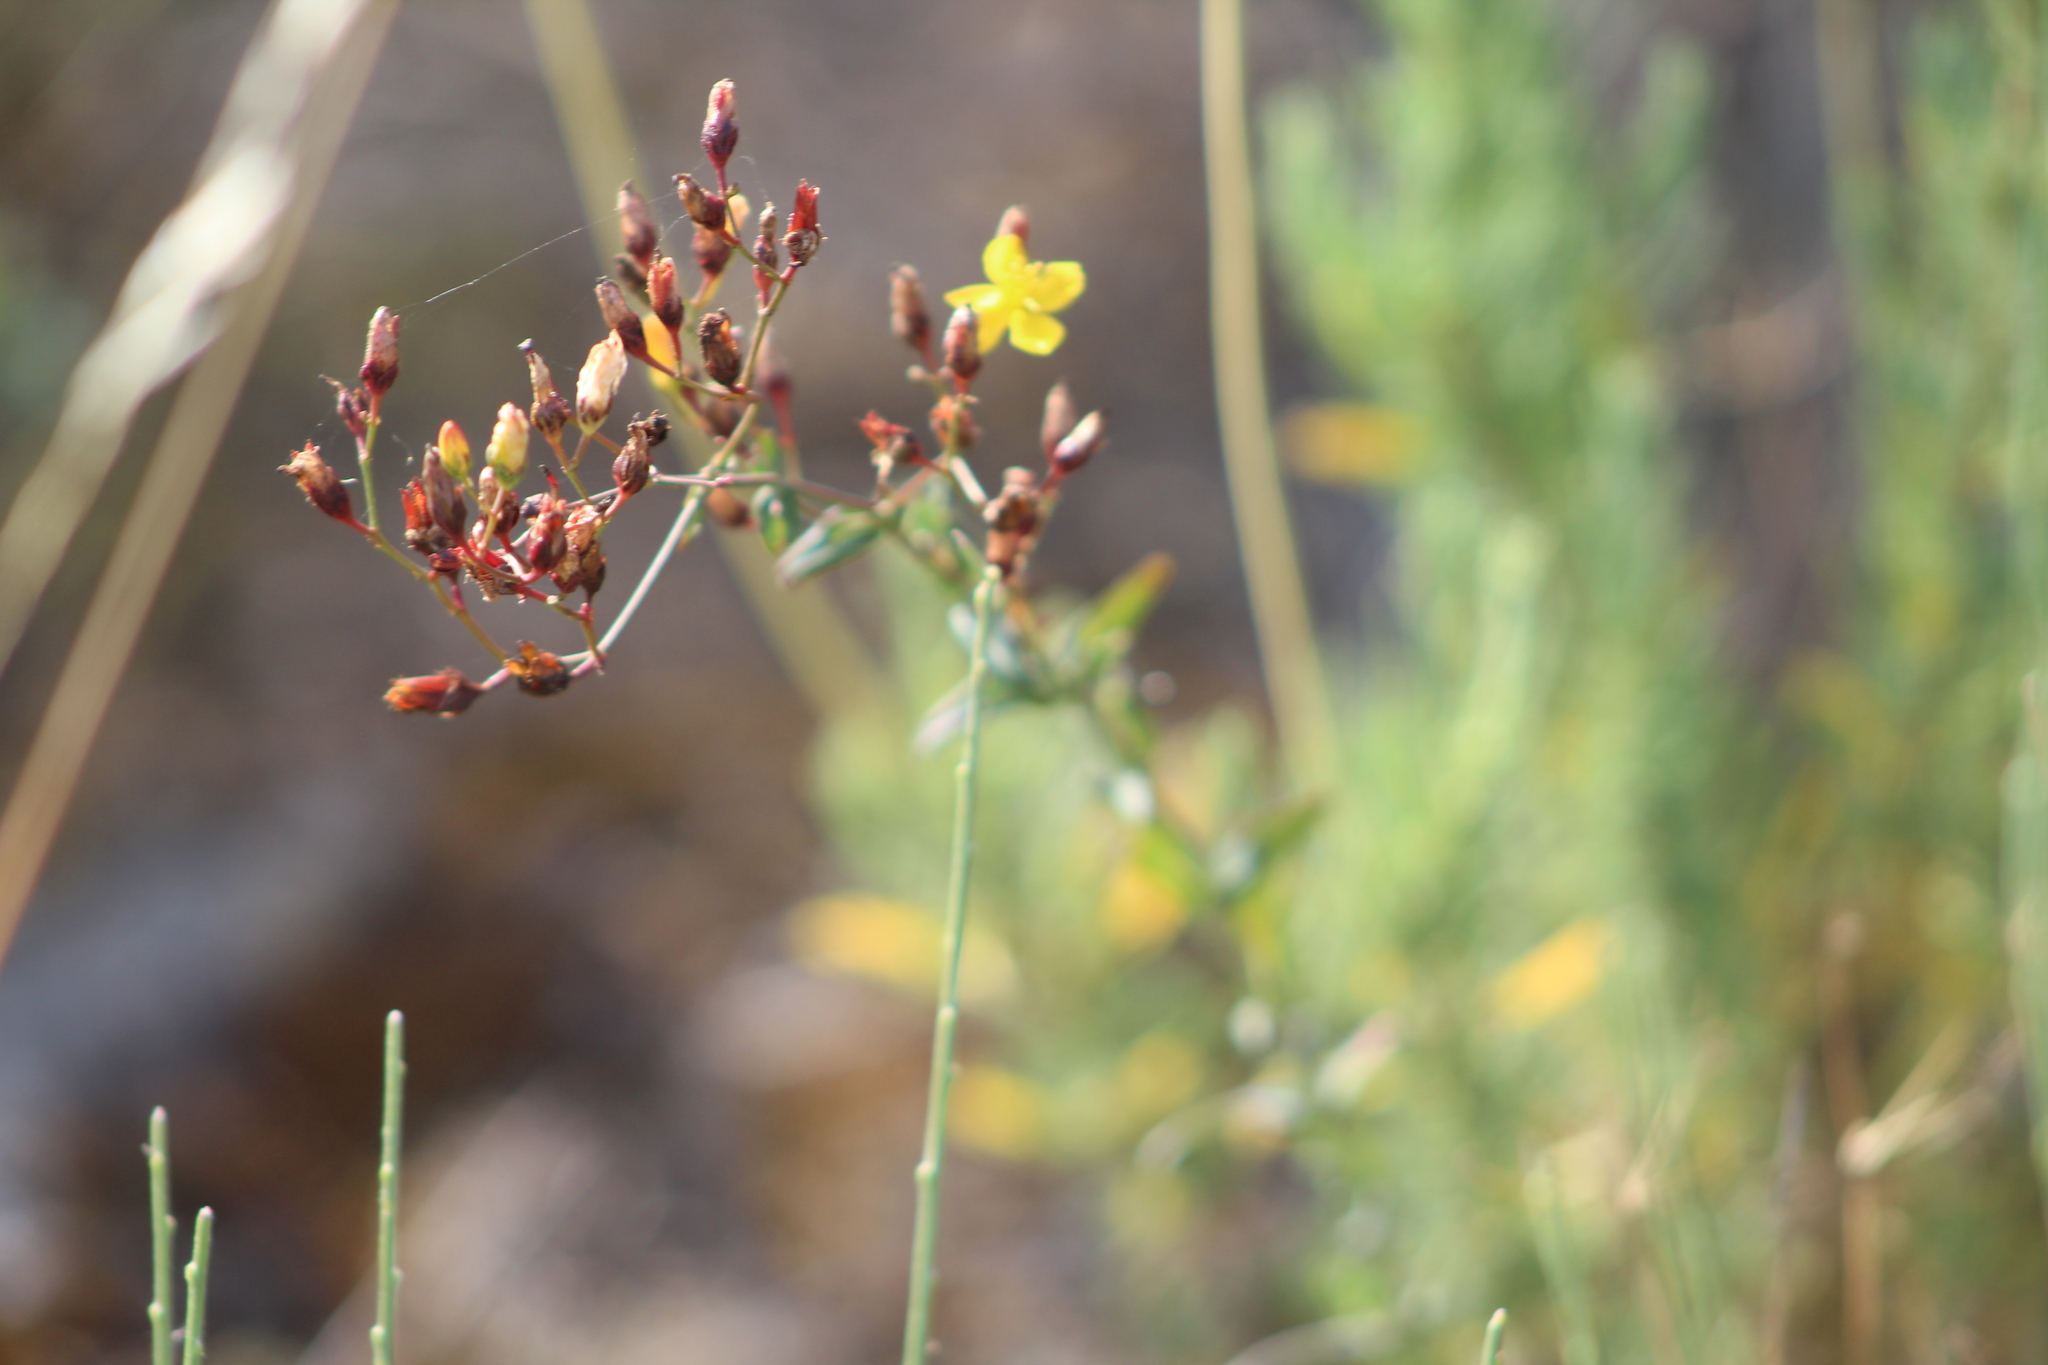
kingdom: Plantae
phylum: Tracheophyta
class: Magnoliopsida
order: Malpighiales
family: Hypericaceae
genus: Hypericum
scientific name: Hypericum linariifolium
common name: Toadflax-leaved st. john's-wort
